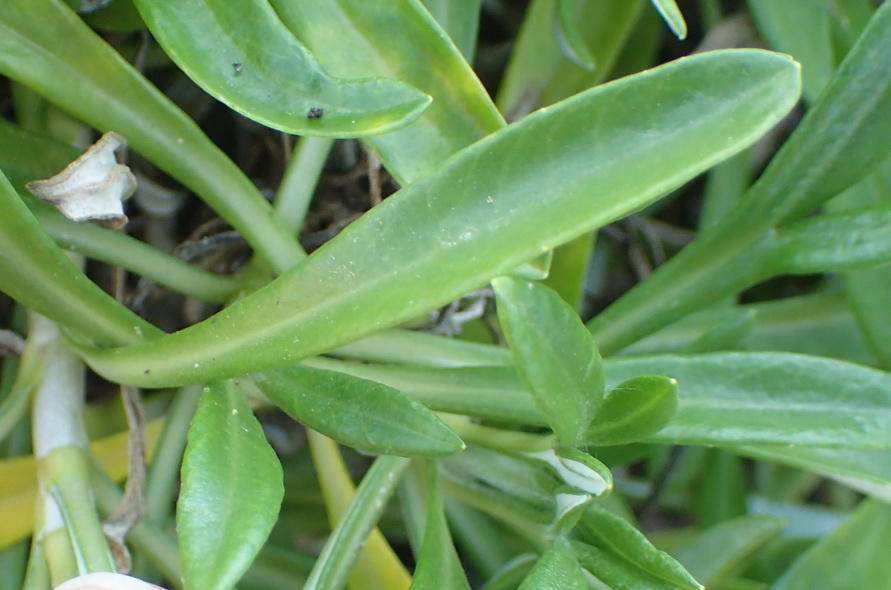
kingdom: Plantae
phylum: Tracheophyta
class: Magnoliopsida
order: Asterales
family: Asteraceae
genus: Gazania
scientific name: Gazania rigens
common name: Treasureflower
